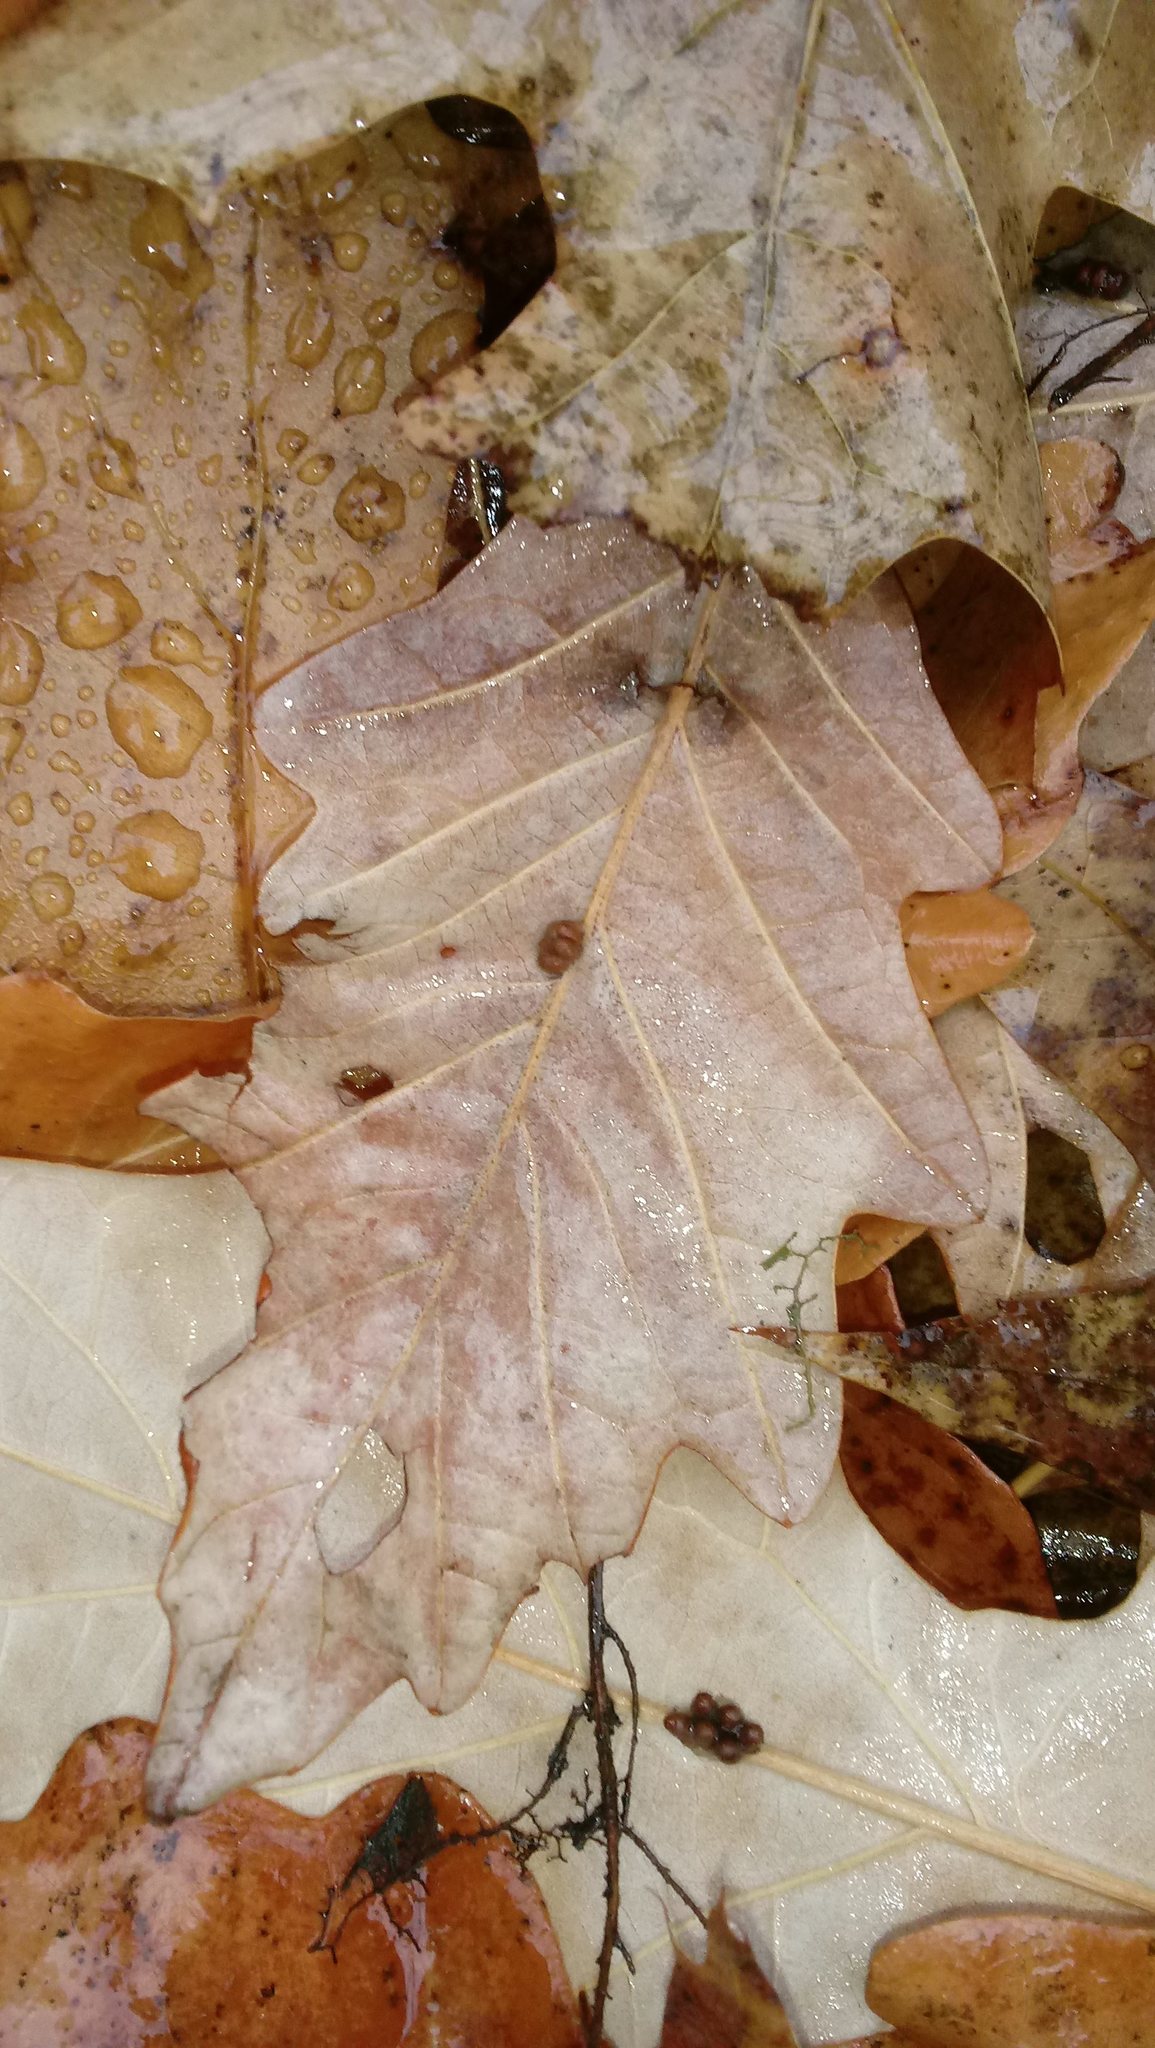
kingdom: Animalia
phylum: Arthropoda
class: Insecta
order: Hymenoptera
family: Cynipidae
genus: Andricus
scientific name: Andricus Druon ignotum
